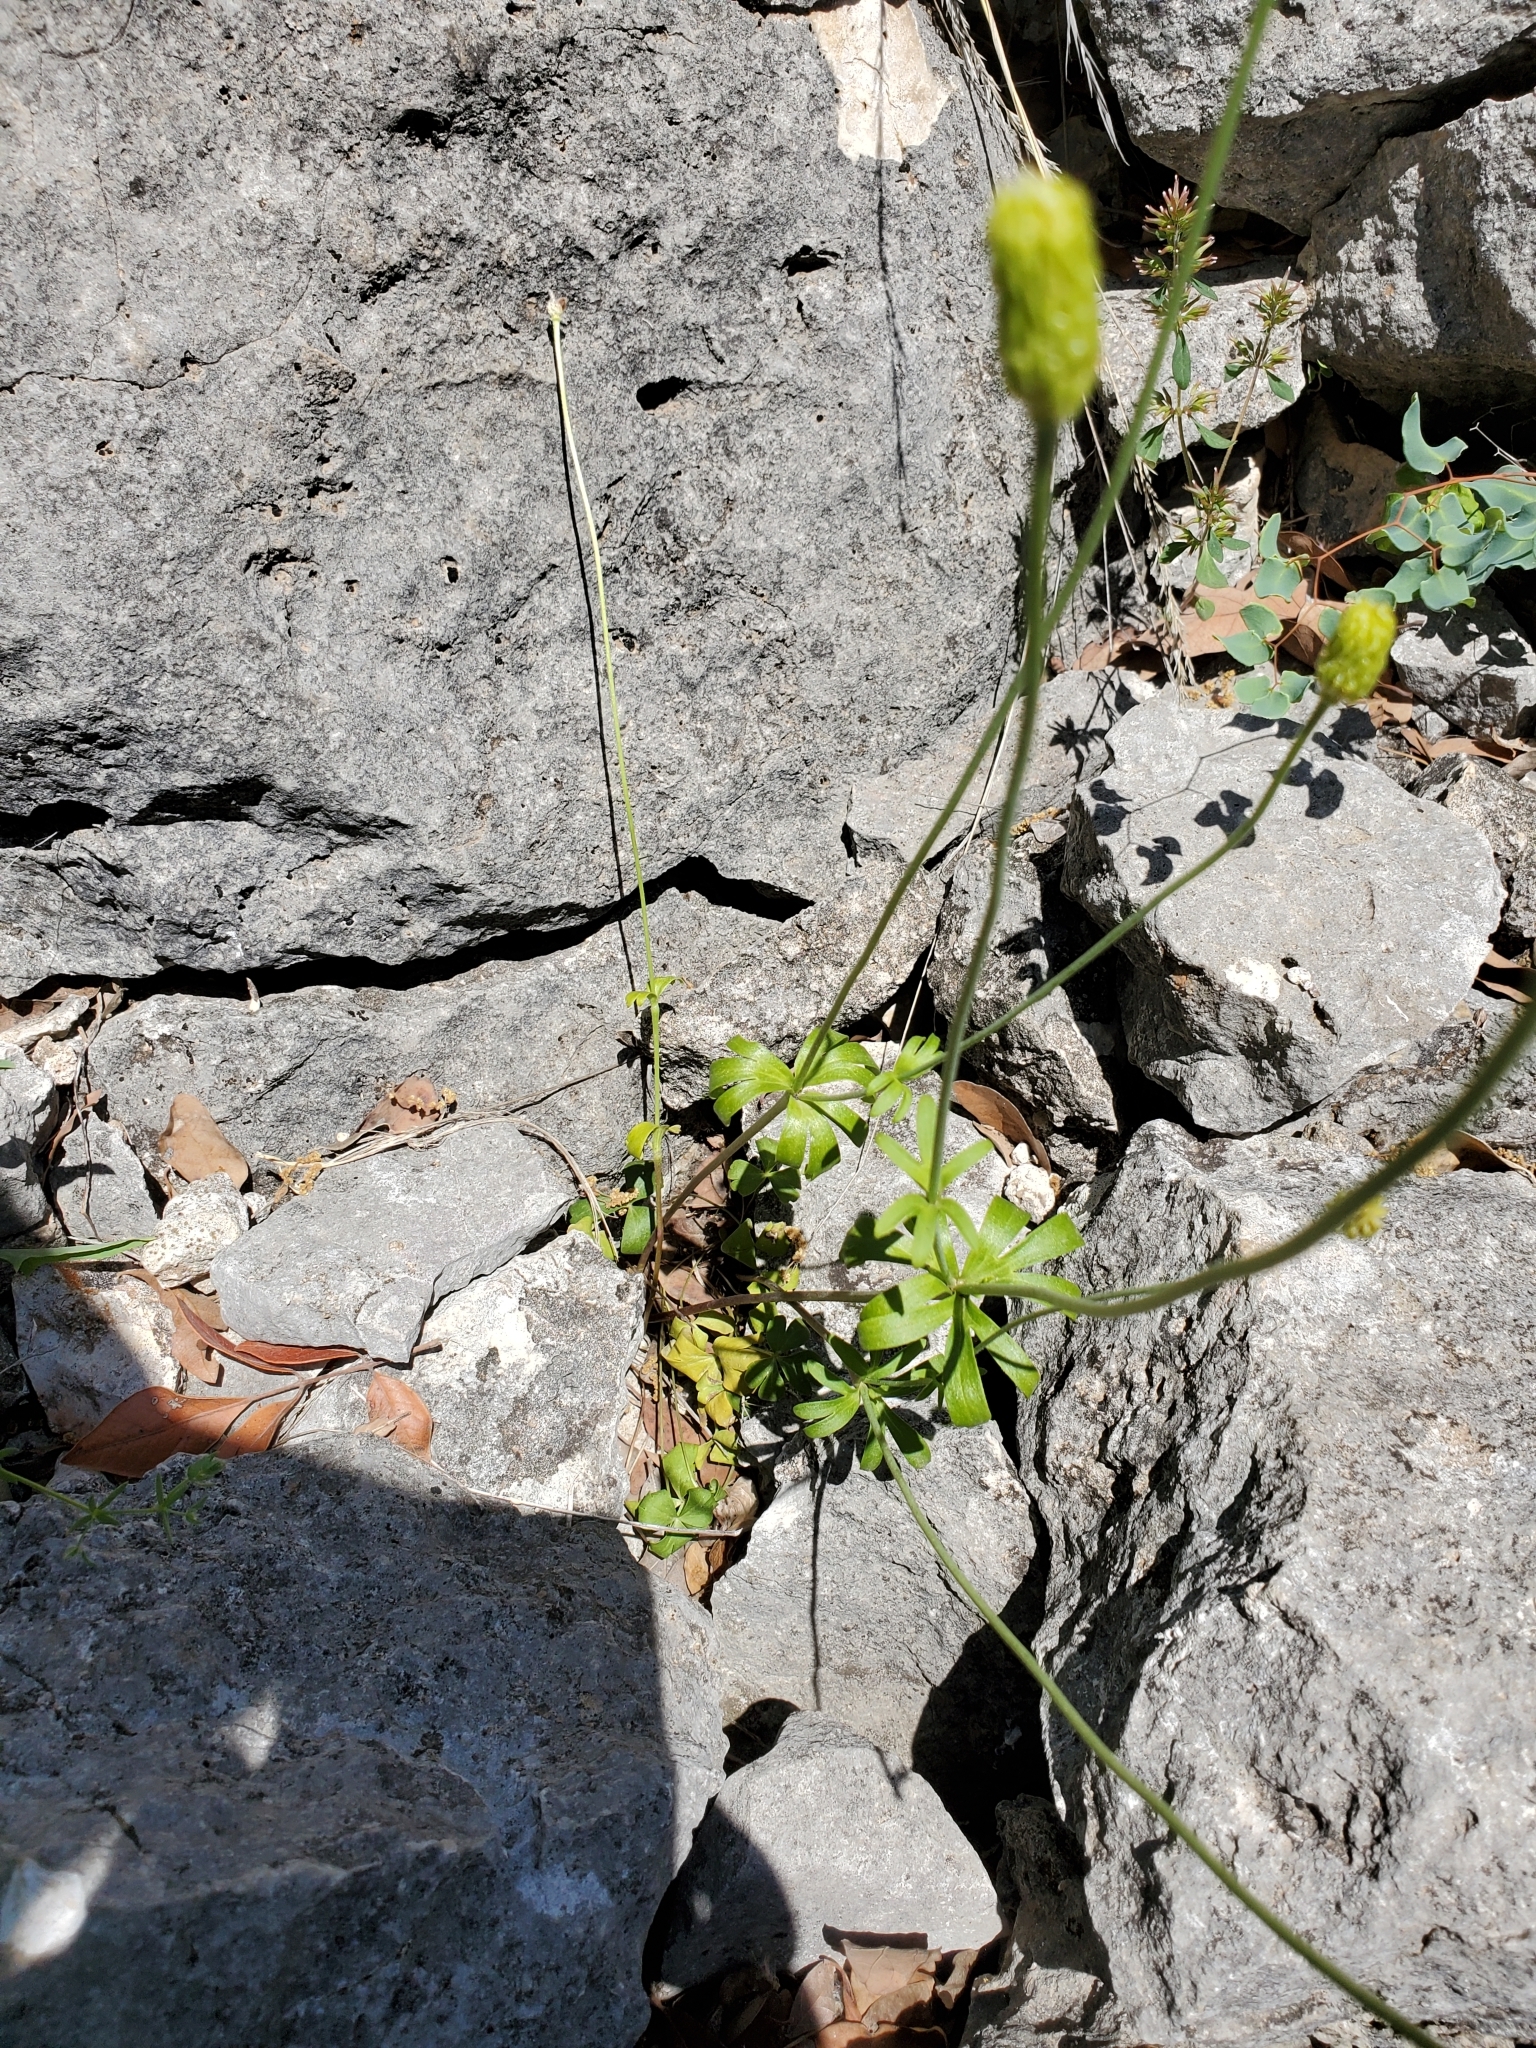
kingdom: Plantae
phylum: Tracheophyta
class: Magnoliopsida
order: Ranunculales
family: Ranunculaceae
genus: Anemone
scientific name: Anemone edwardsiana
